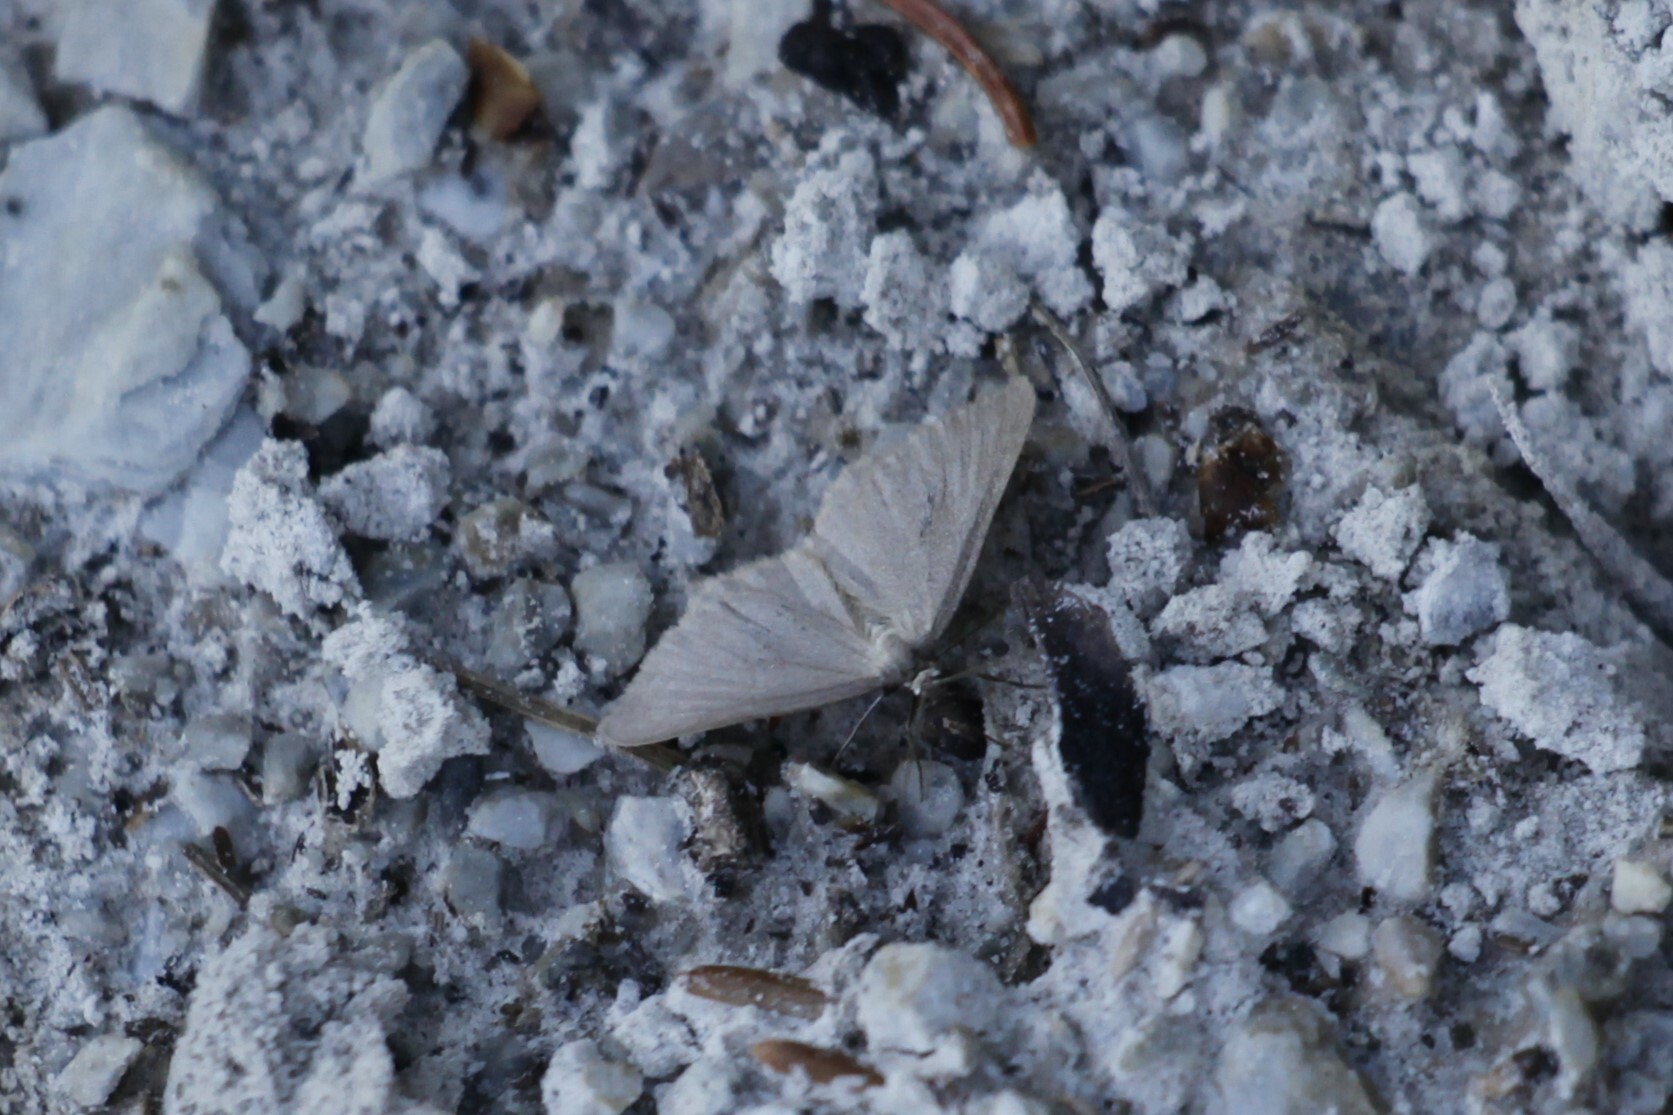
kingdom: Animalia
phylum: Arthropoda
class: Insecta
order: Lepidoptera
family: Geometridae
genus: Minoa
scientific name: Minoa murinata
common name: Drab looper
